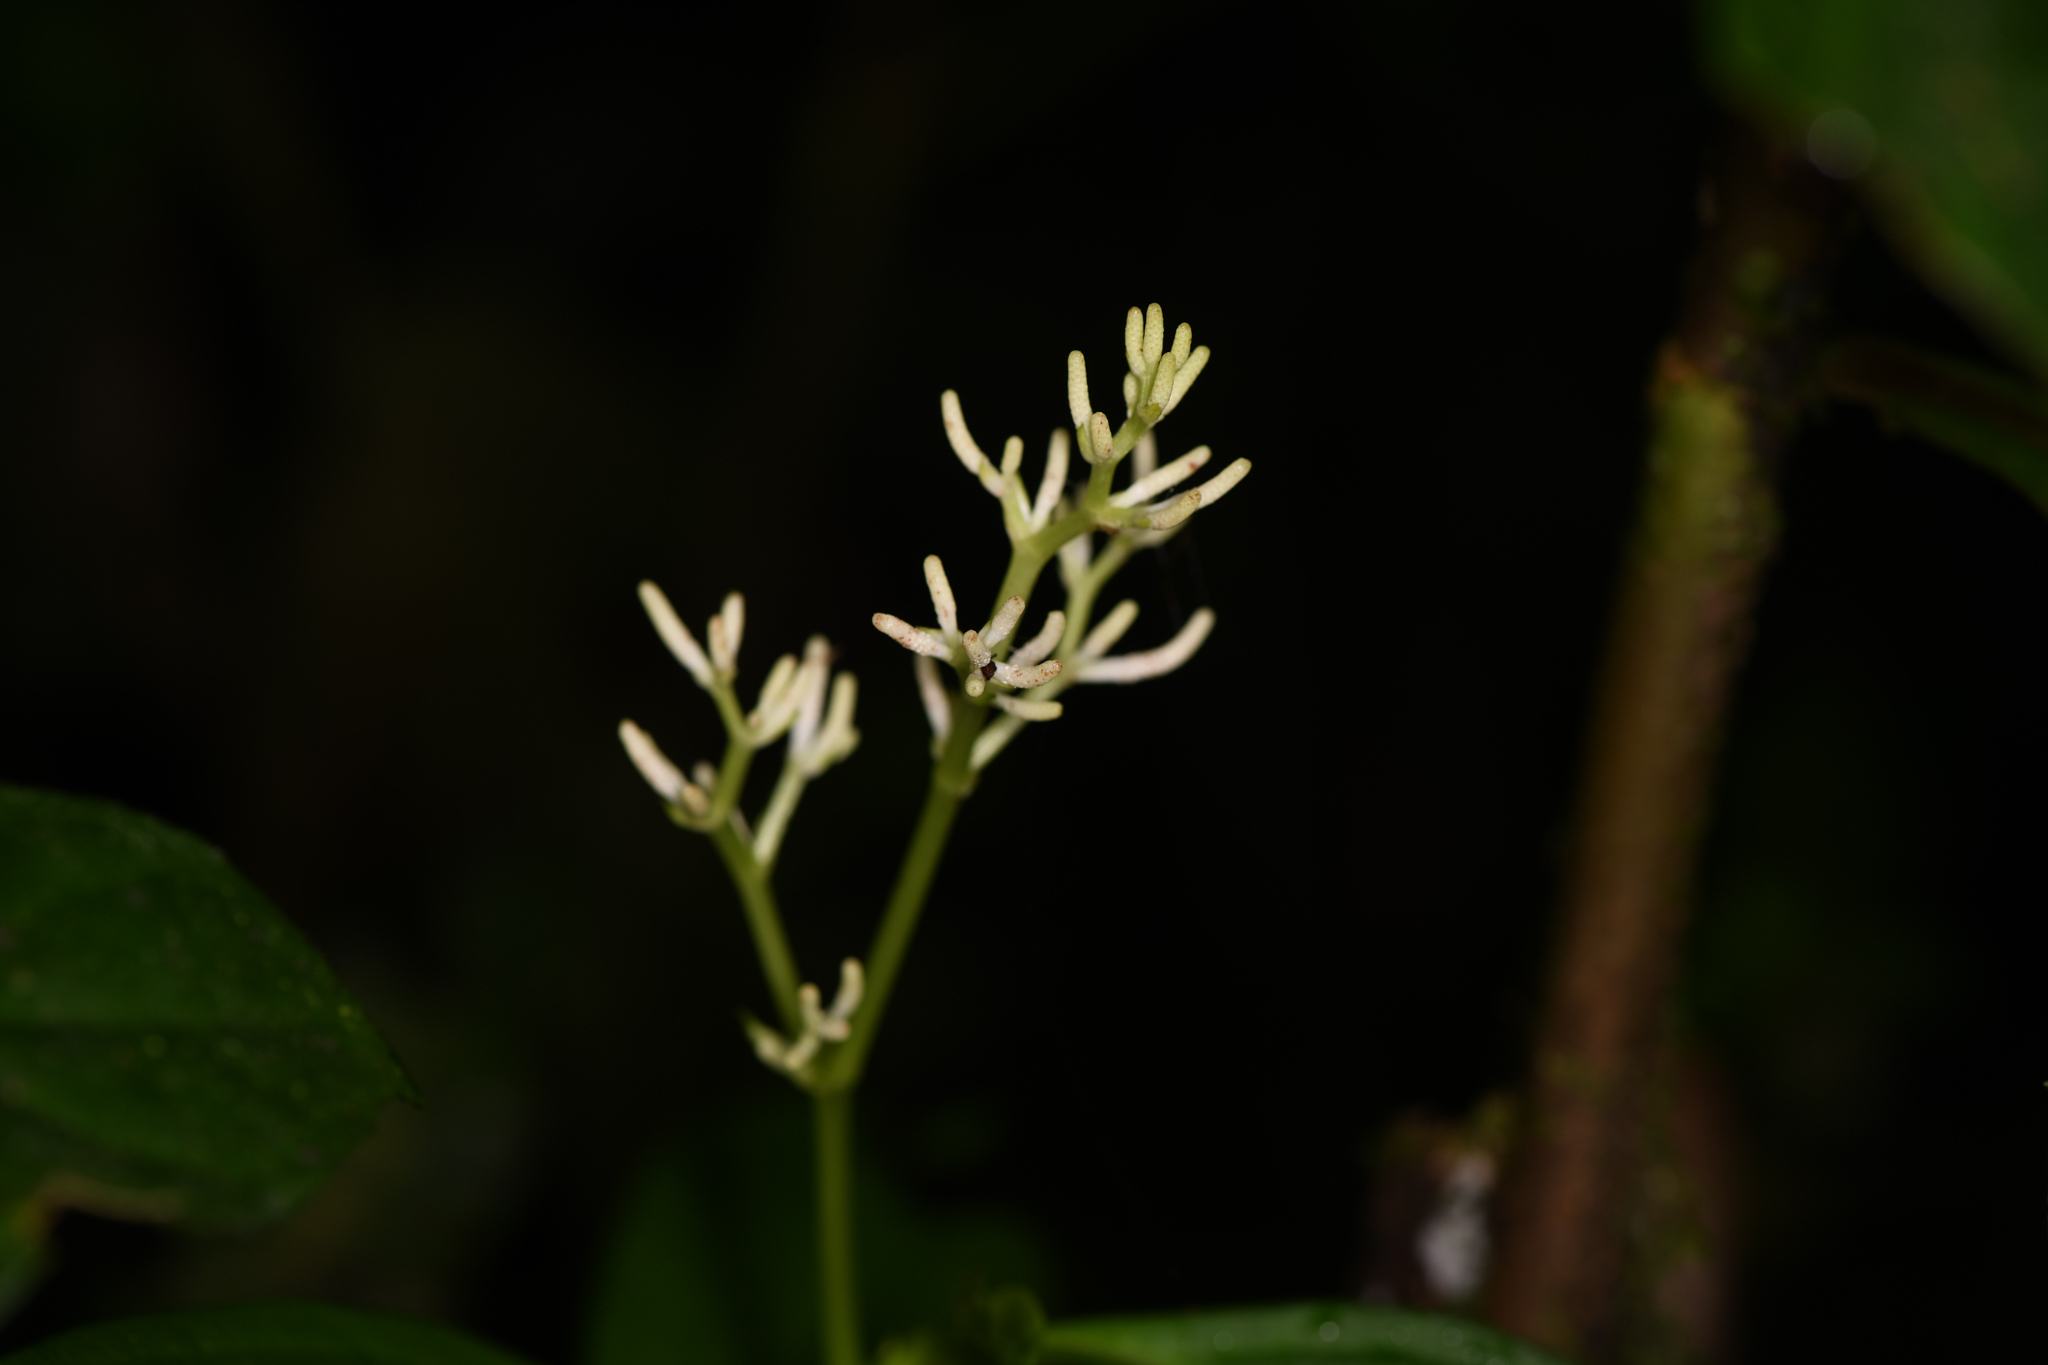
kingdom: Plantae
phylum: Tracheophyta
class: Magnoliopsida
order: Piperales
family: Piperaceae
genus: Peperomia
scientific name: Peperomia poasana
